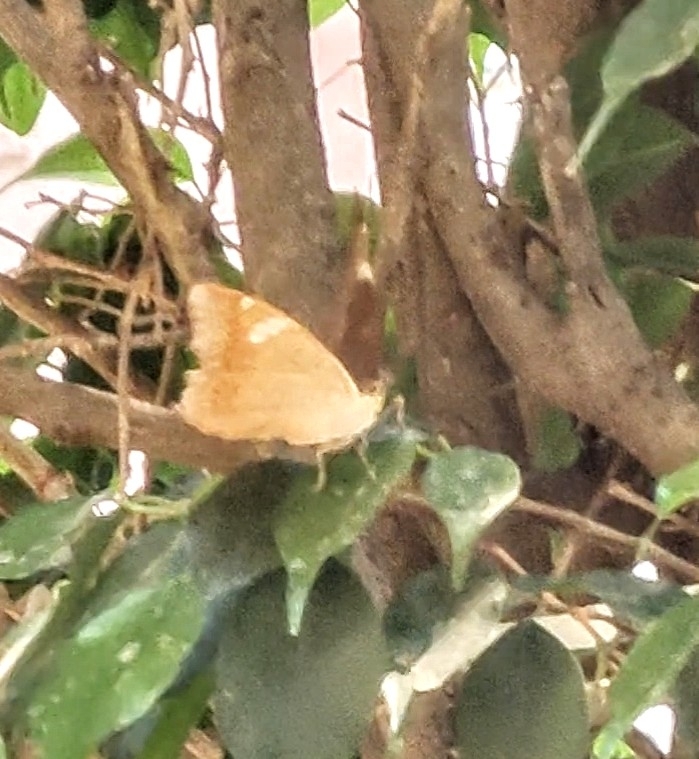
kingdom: Animalia
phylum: Arthropoda
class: Insecta
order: Lepidoptera
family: Nymphalidae
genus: Euthalia
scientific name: Euthalia aconthea
